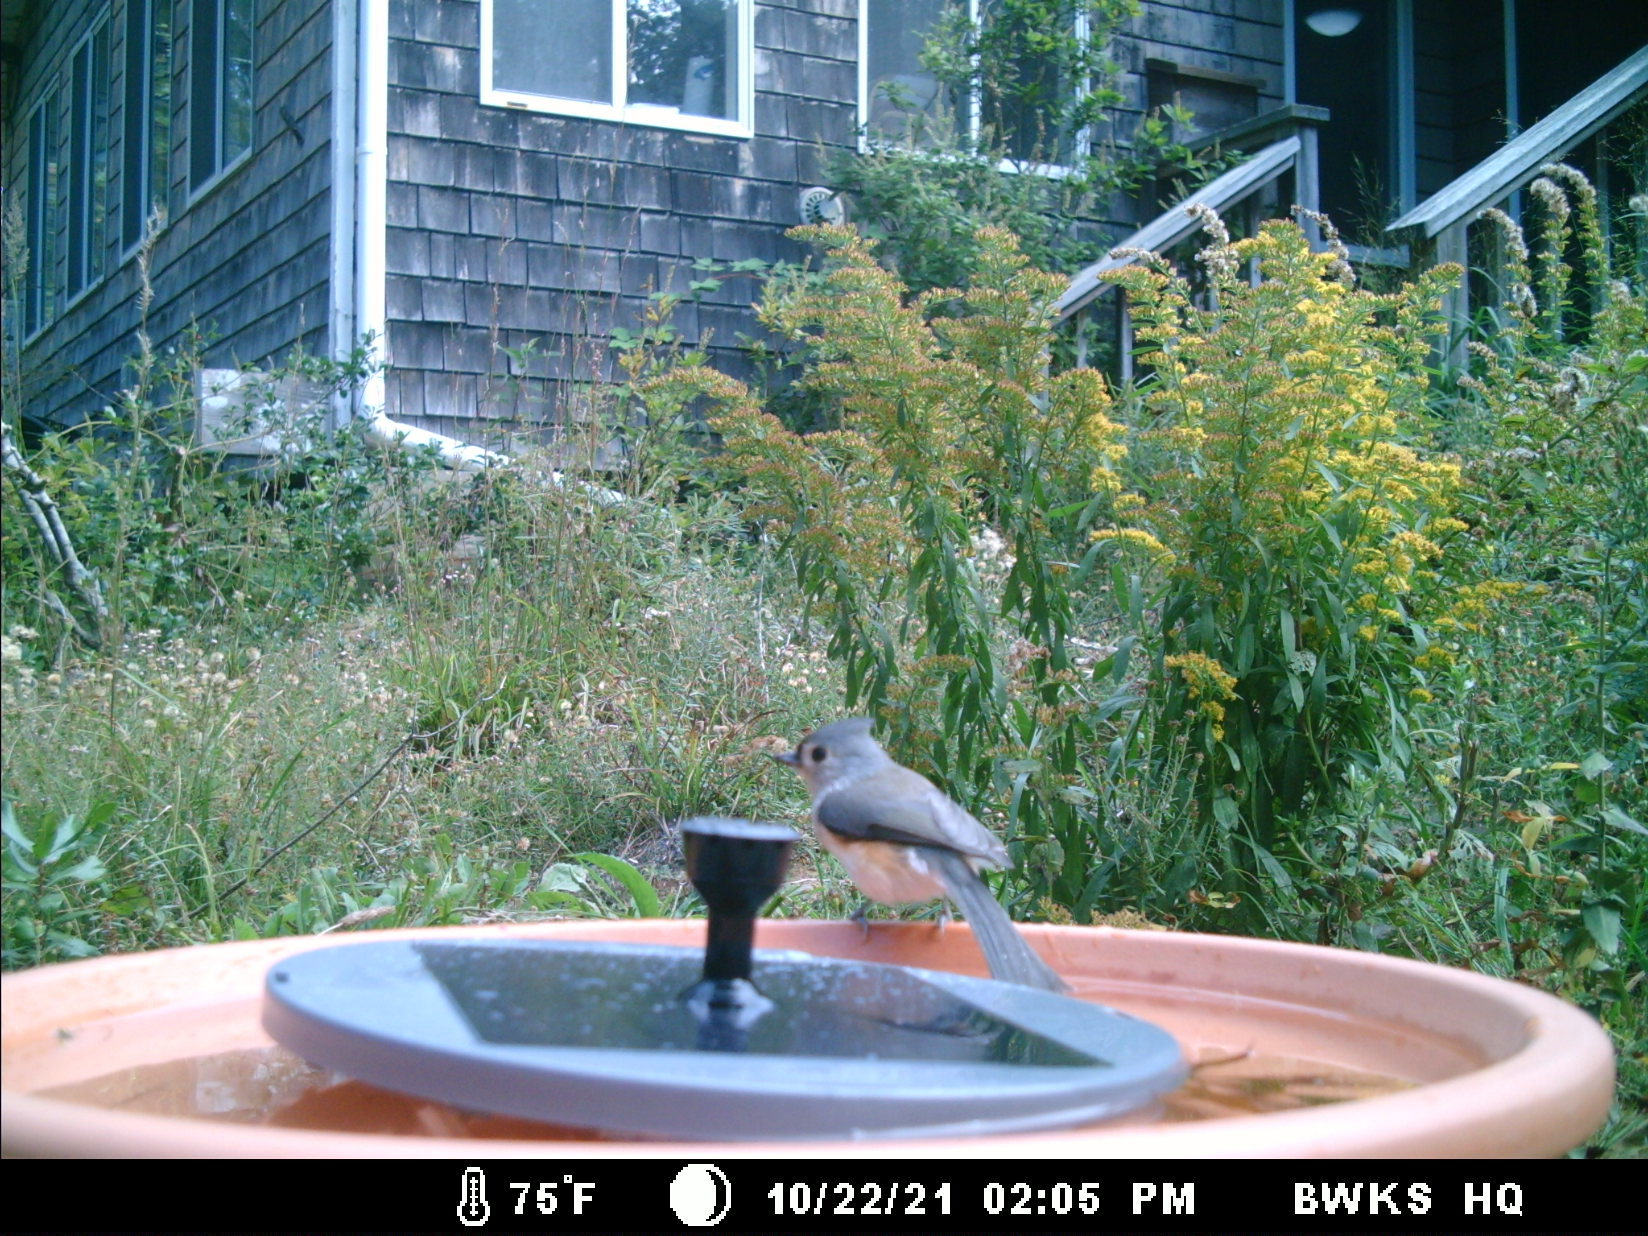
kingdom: Animalia
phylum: Chordata
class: Aves
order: Passeriformes
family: Paridae
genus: Baeolophus
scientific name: Baeolophus bicolor
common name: Tufted titmouse
